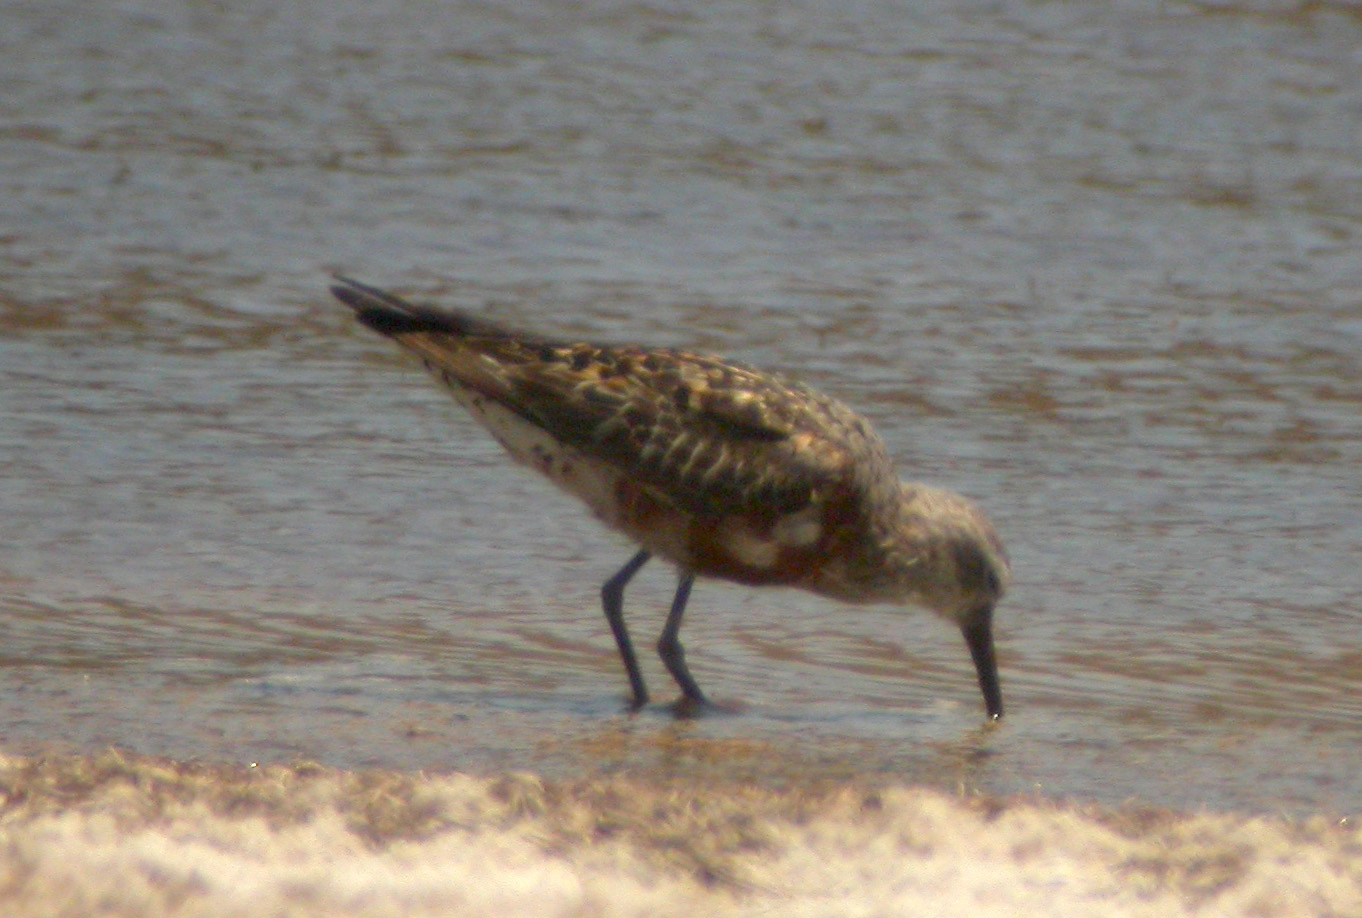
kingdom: Animalia
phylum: Chordata
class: Aves
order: Charadriiformes
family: Scolopacidae
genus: Calidris
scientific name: Calidris ferruginea
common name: Curlew sandpiper
